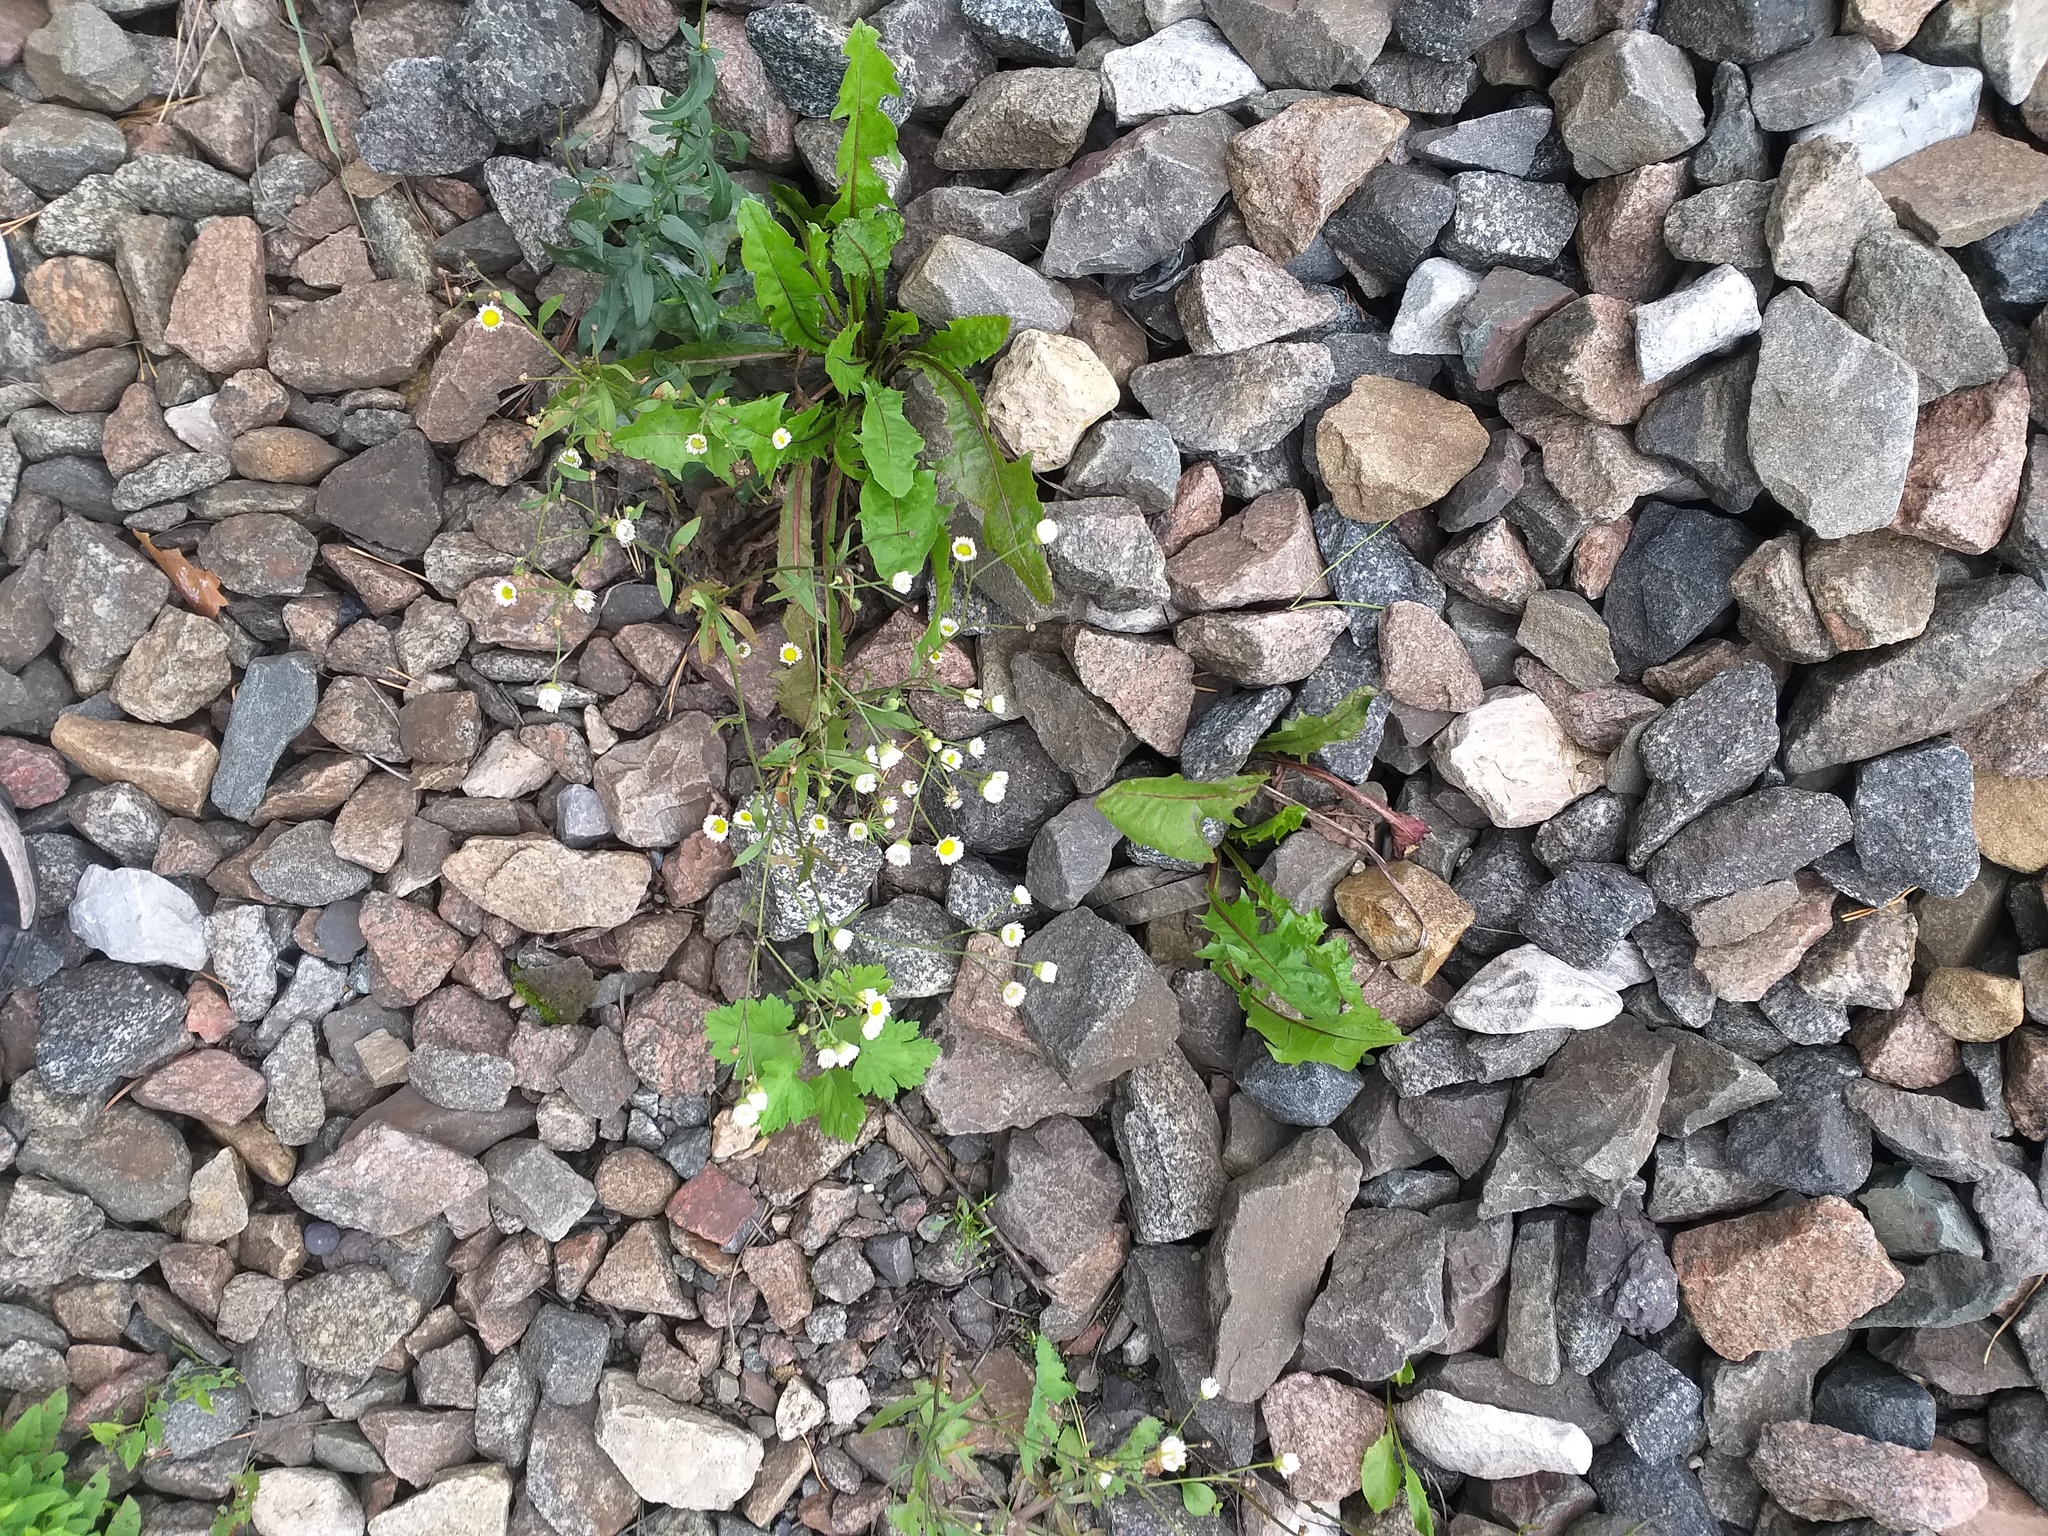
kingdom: Plantae
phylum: Tracheophyta
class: Magnoliopsida
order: Asterales
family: Asteraceae
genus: Erigeron
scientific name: Erigeron annuus
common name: Tall fleabane
